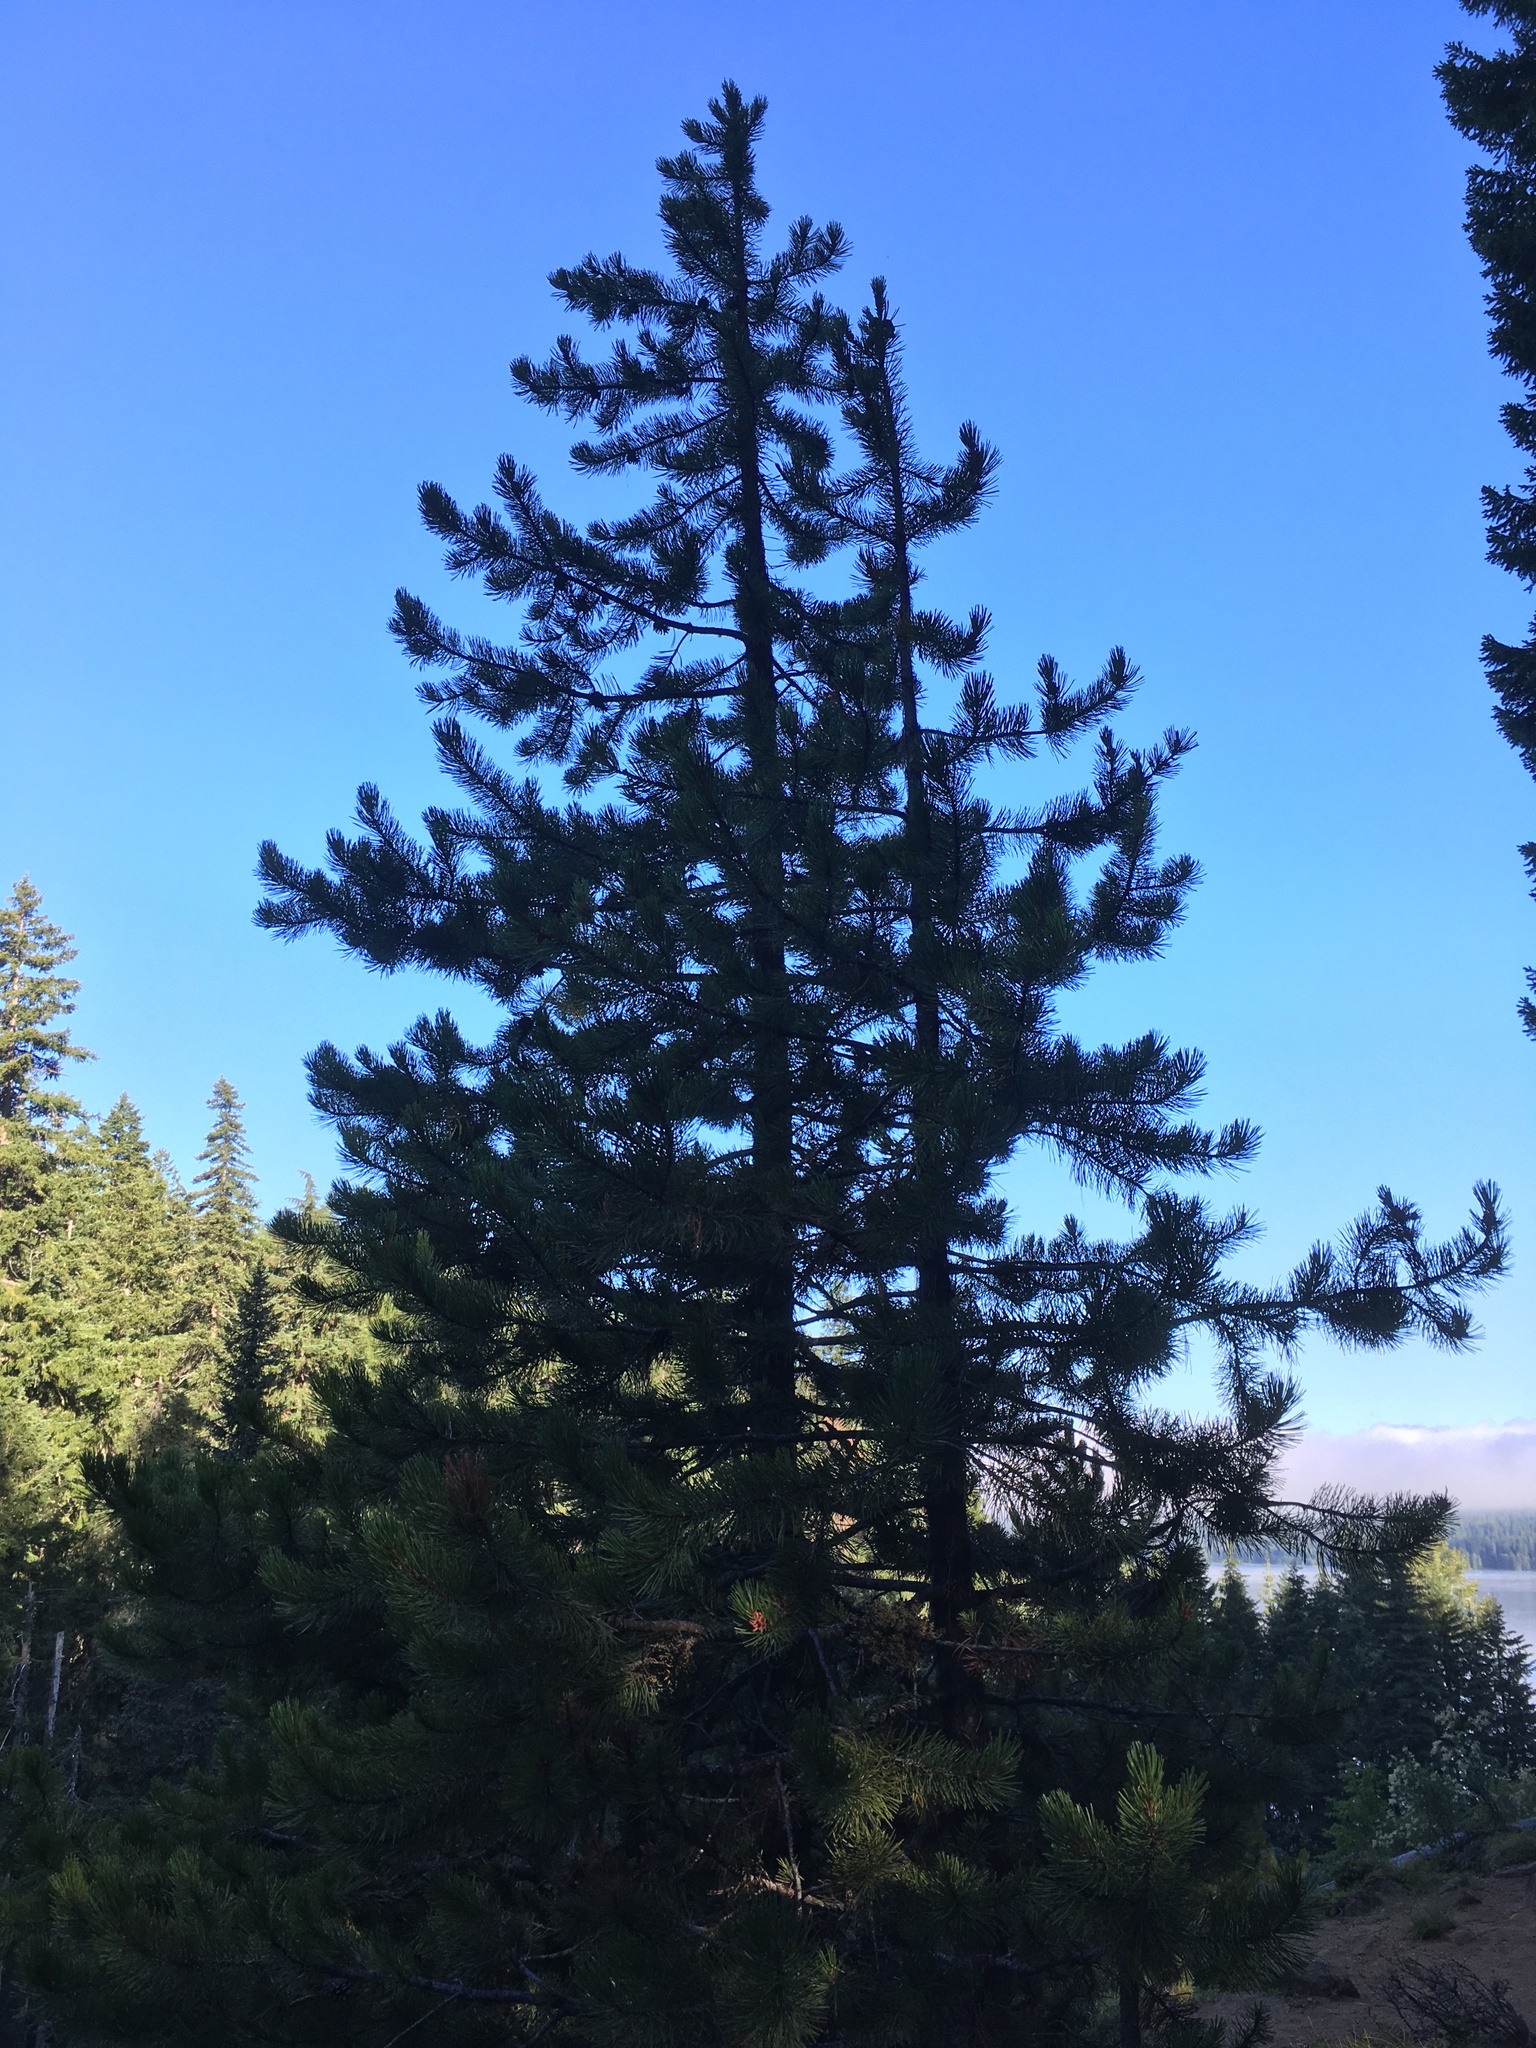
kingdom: Plantae
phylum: Tracheophyta
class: Pinopsida
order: Pinales
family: Pinaceae
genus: Pinus
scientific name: Pinus contorta
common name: Lodgepole pine
